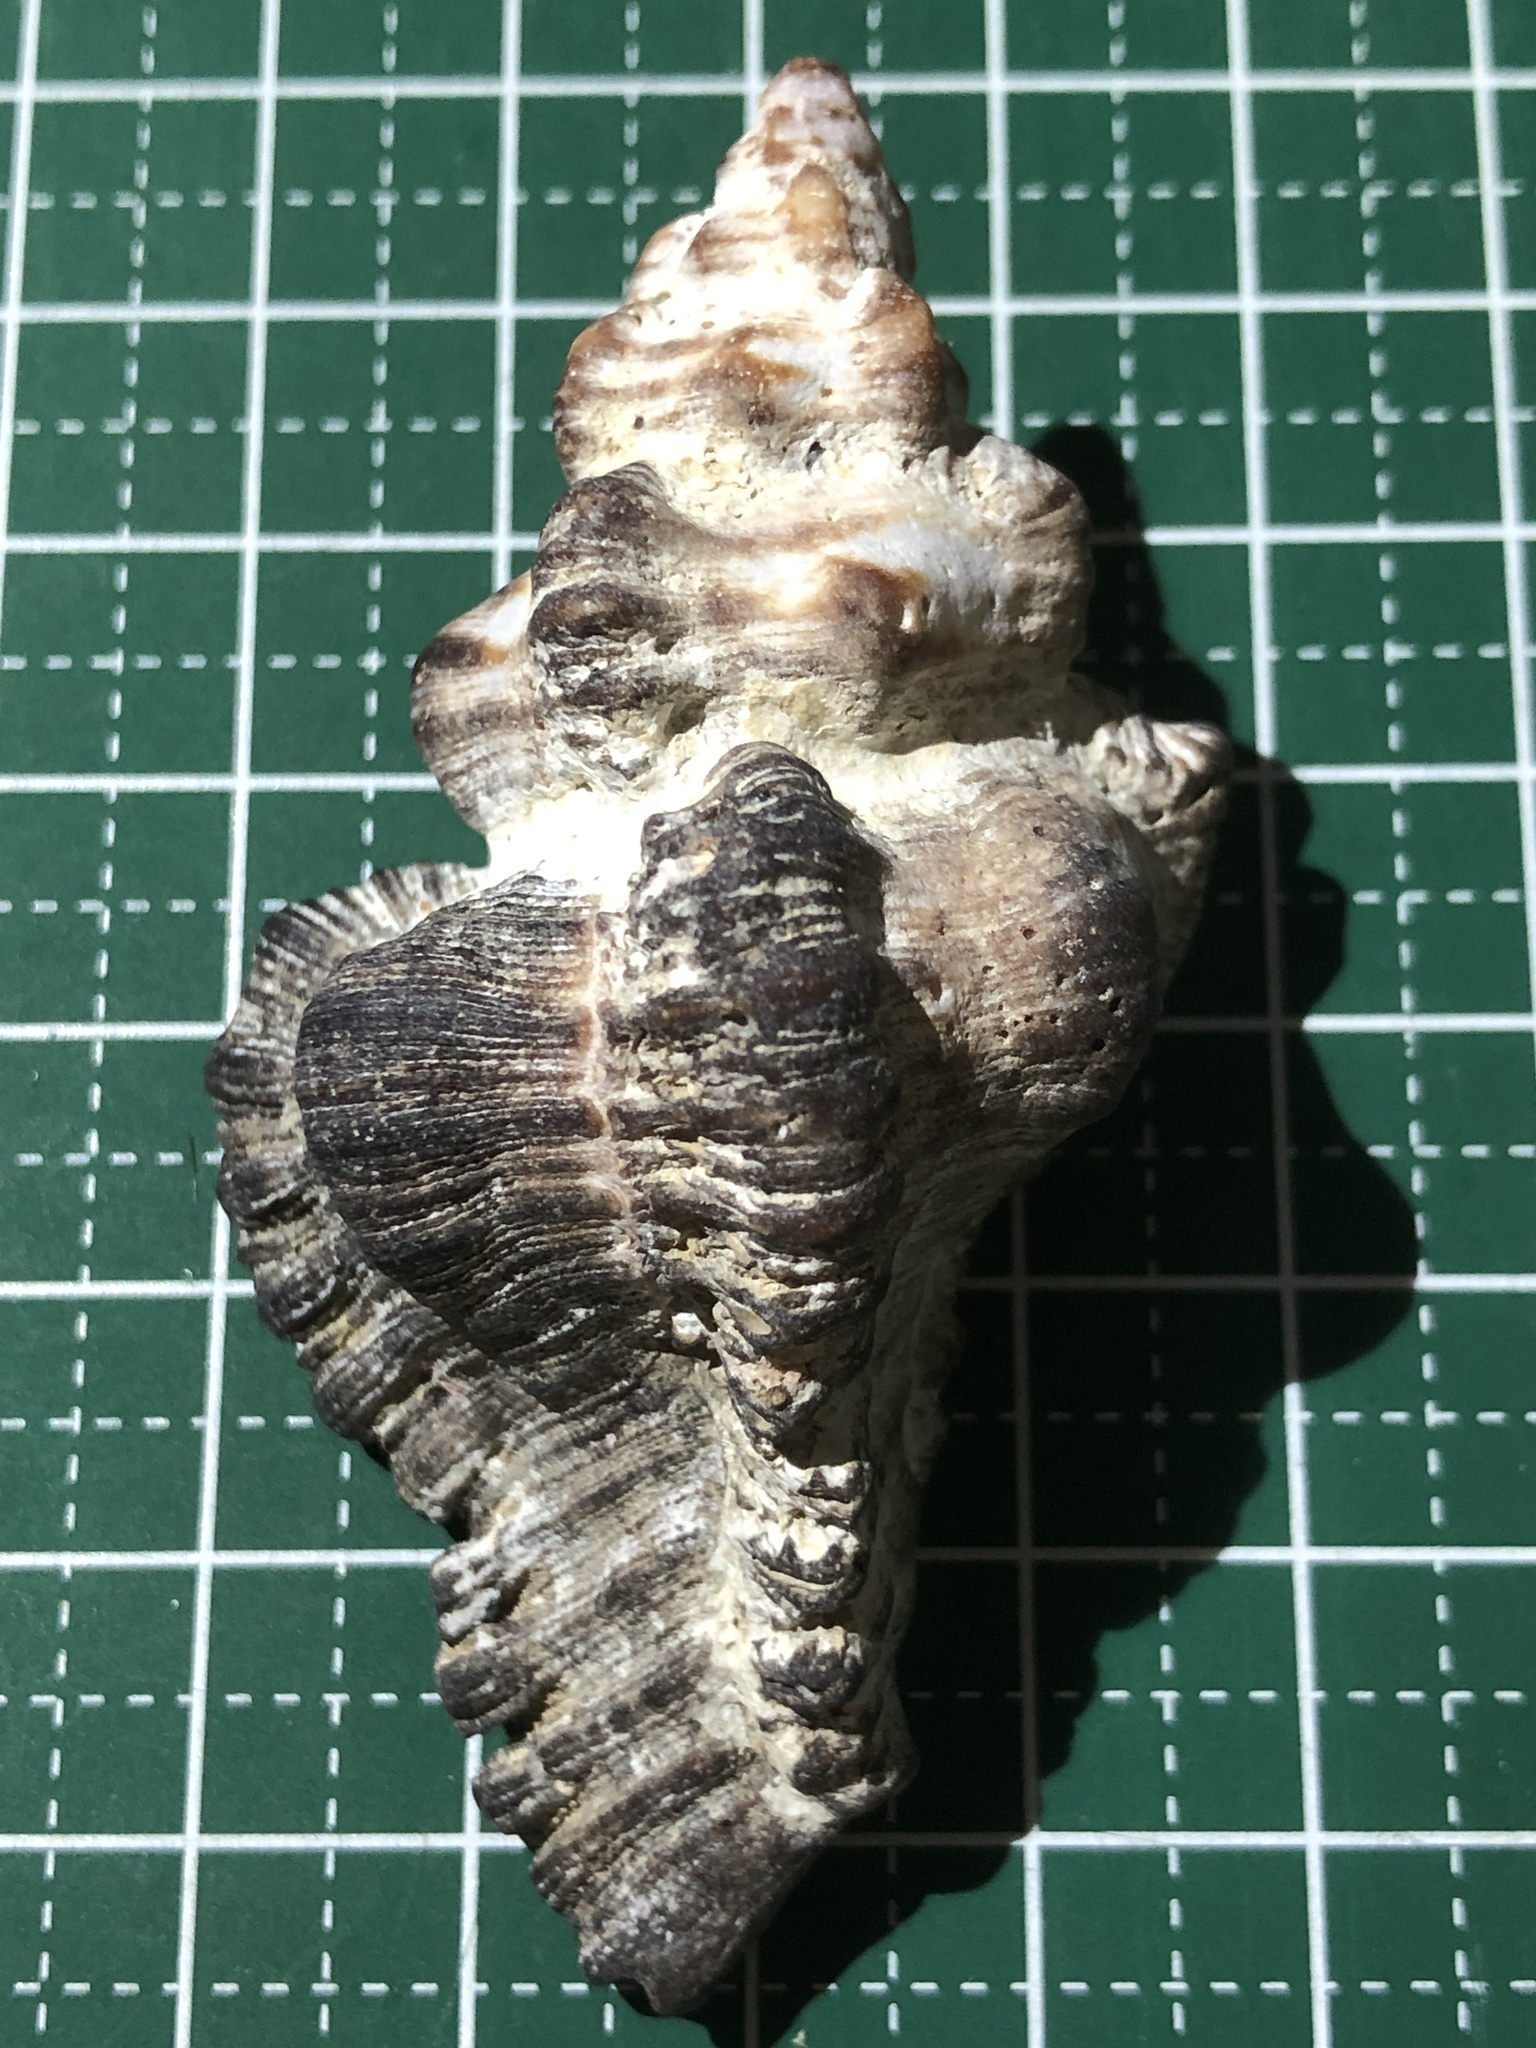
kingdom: Animalia
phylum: Mollusca
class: Gastropoda
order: Neogastropoda
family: Muricidae
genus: Chicoreus
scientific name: Chicoreus brunneus
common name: Adusta murex
